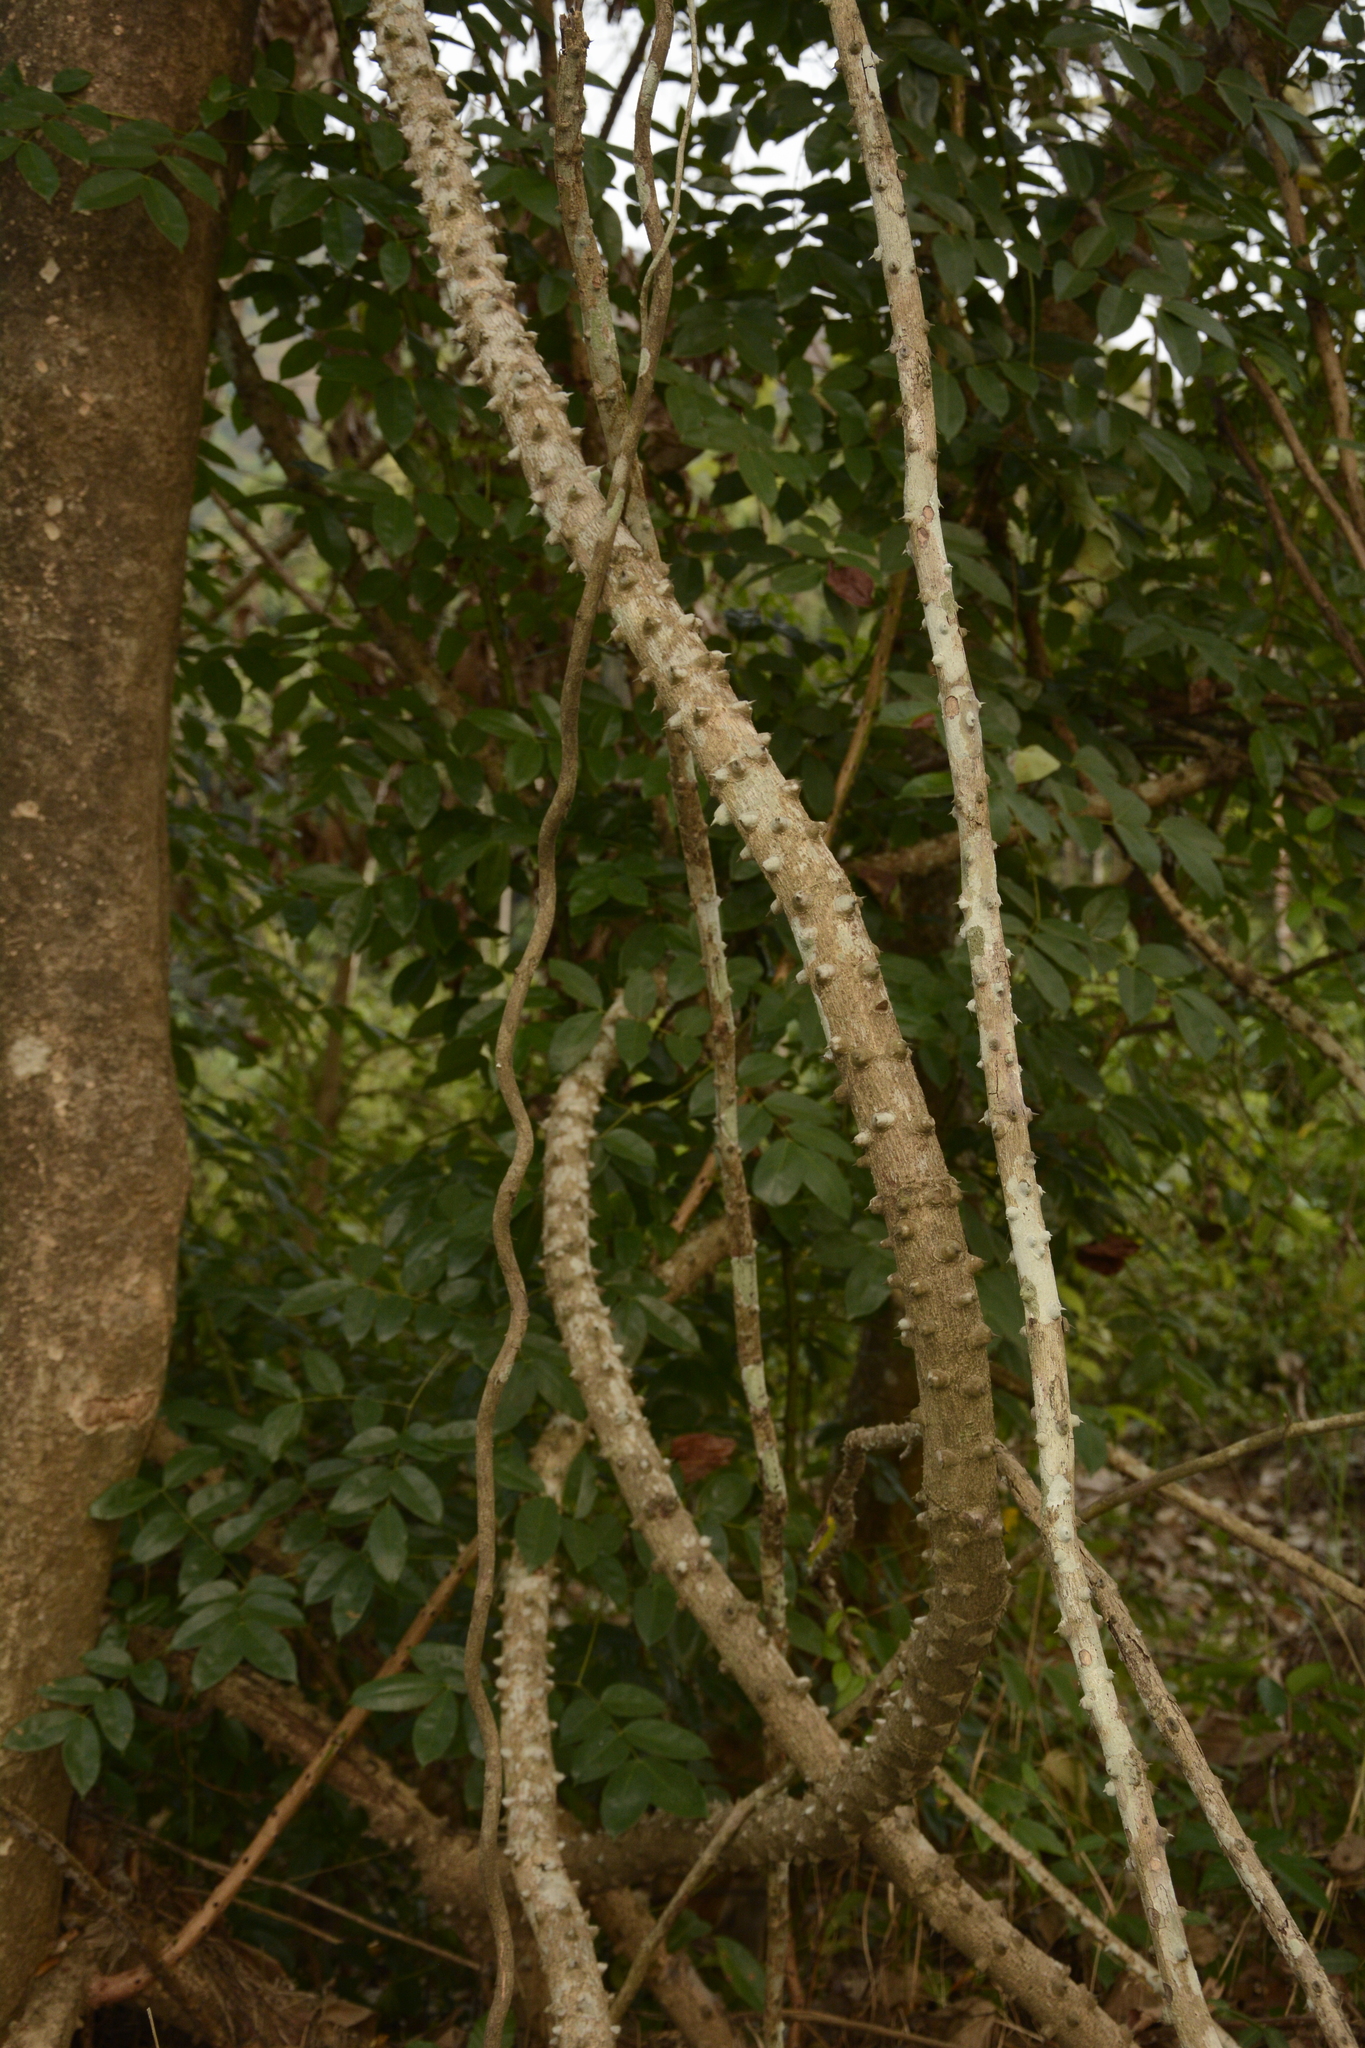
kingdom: Plantae
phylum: Tracheophyta
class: Magnoliopsida
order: Fabales
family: Fabaceae
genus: Mezoneuron
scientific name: Mezoneuron cucullatum
